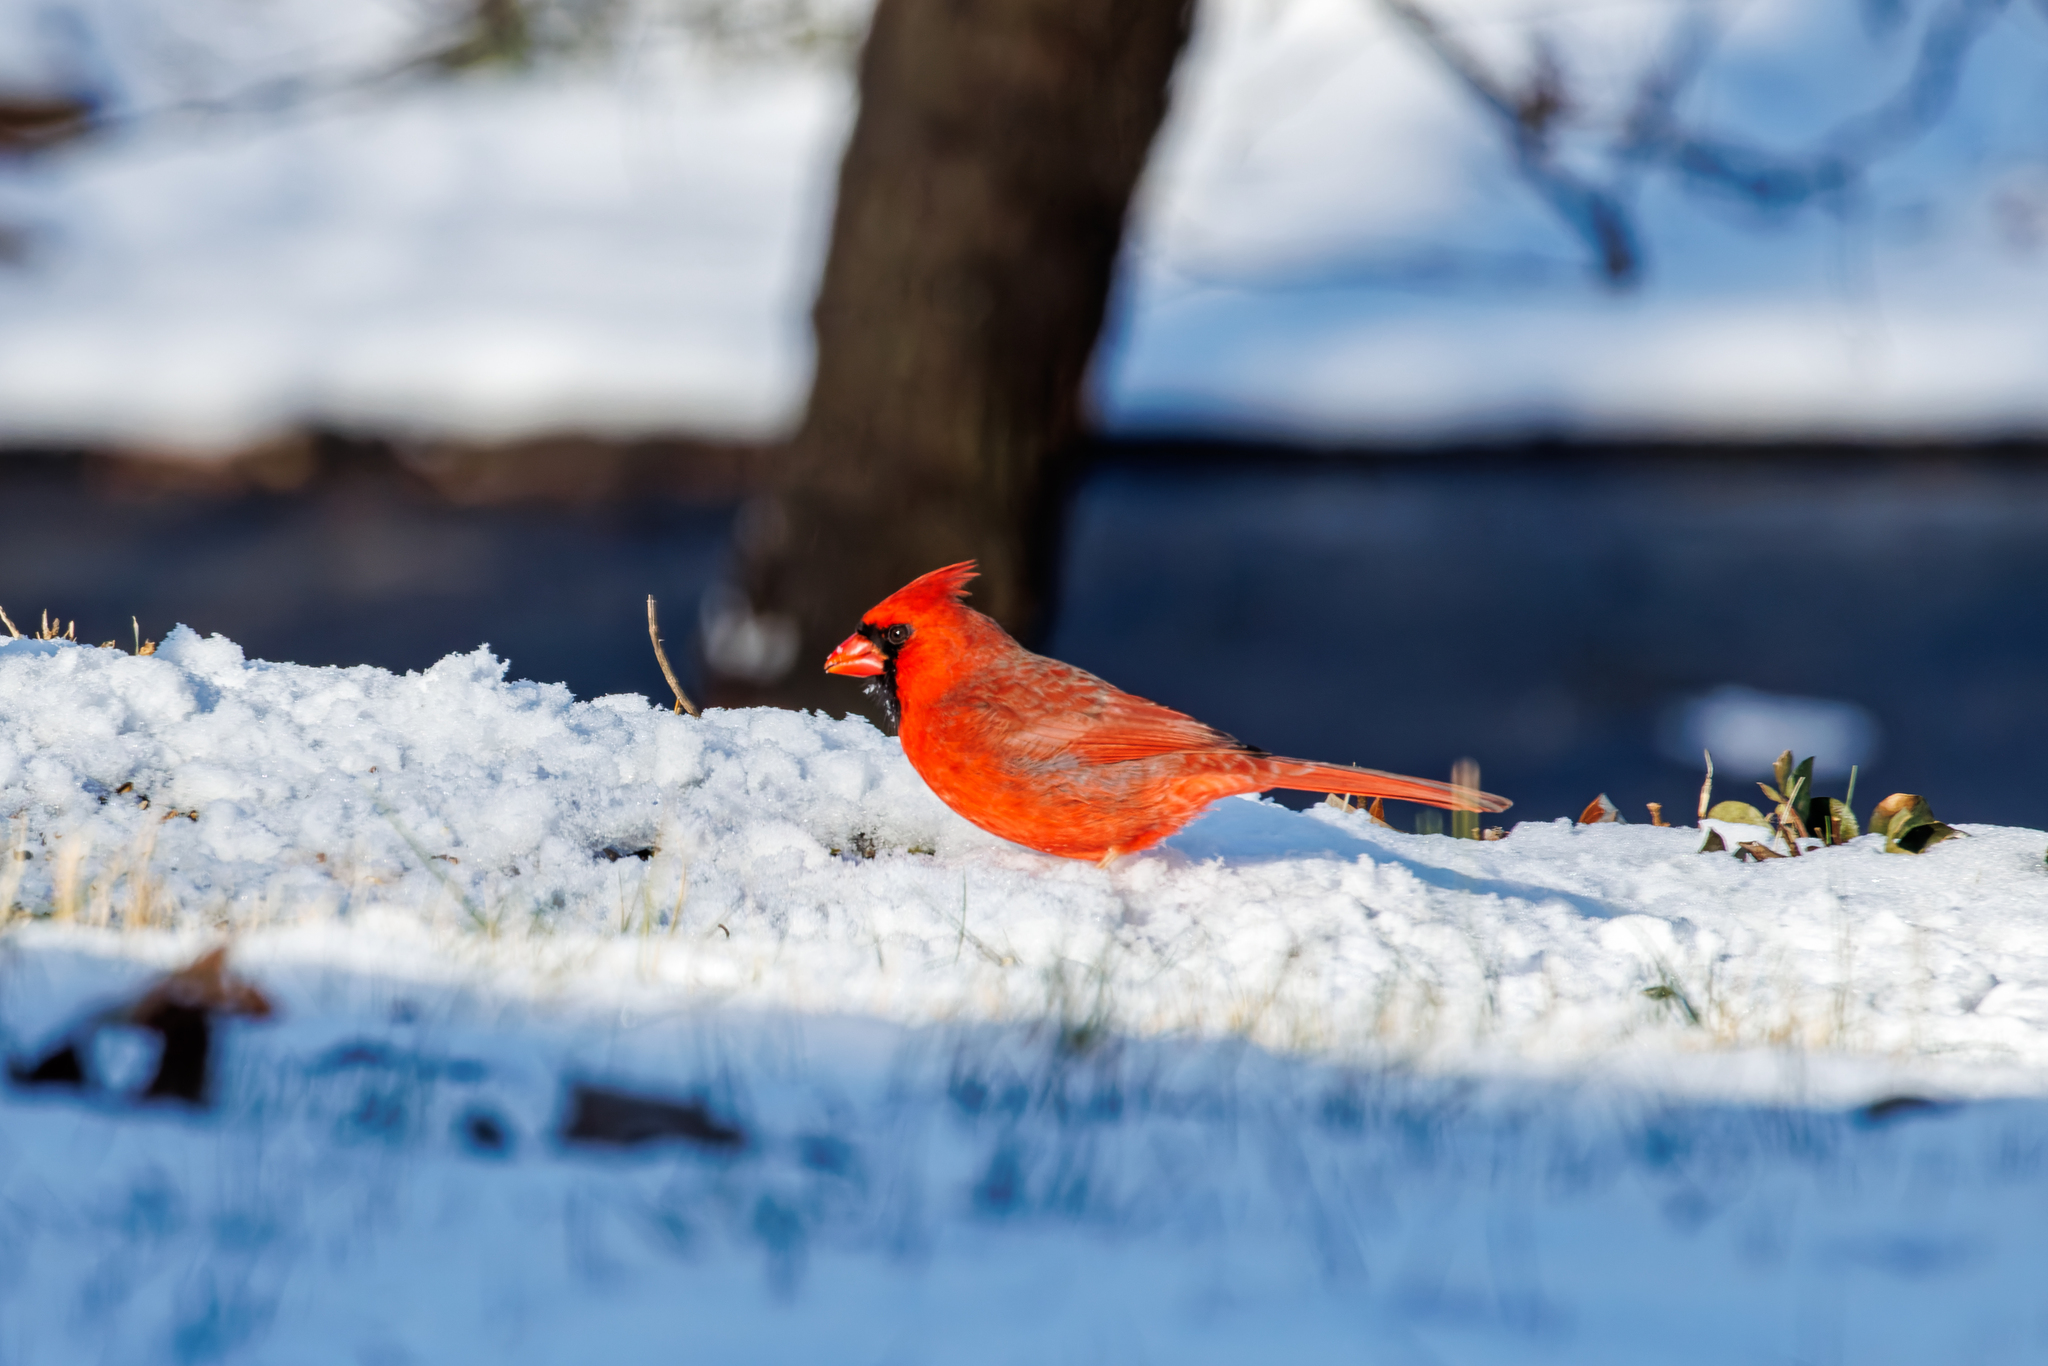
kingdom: Animalia
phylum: Chordata
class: Aves
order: Passeriformes
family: Cardinalidae
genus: Cardinalis
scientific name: Cardinalis cardinalis
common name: Northern cardinal
